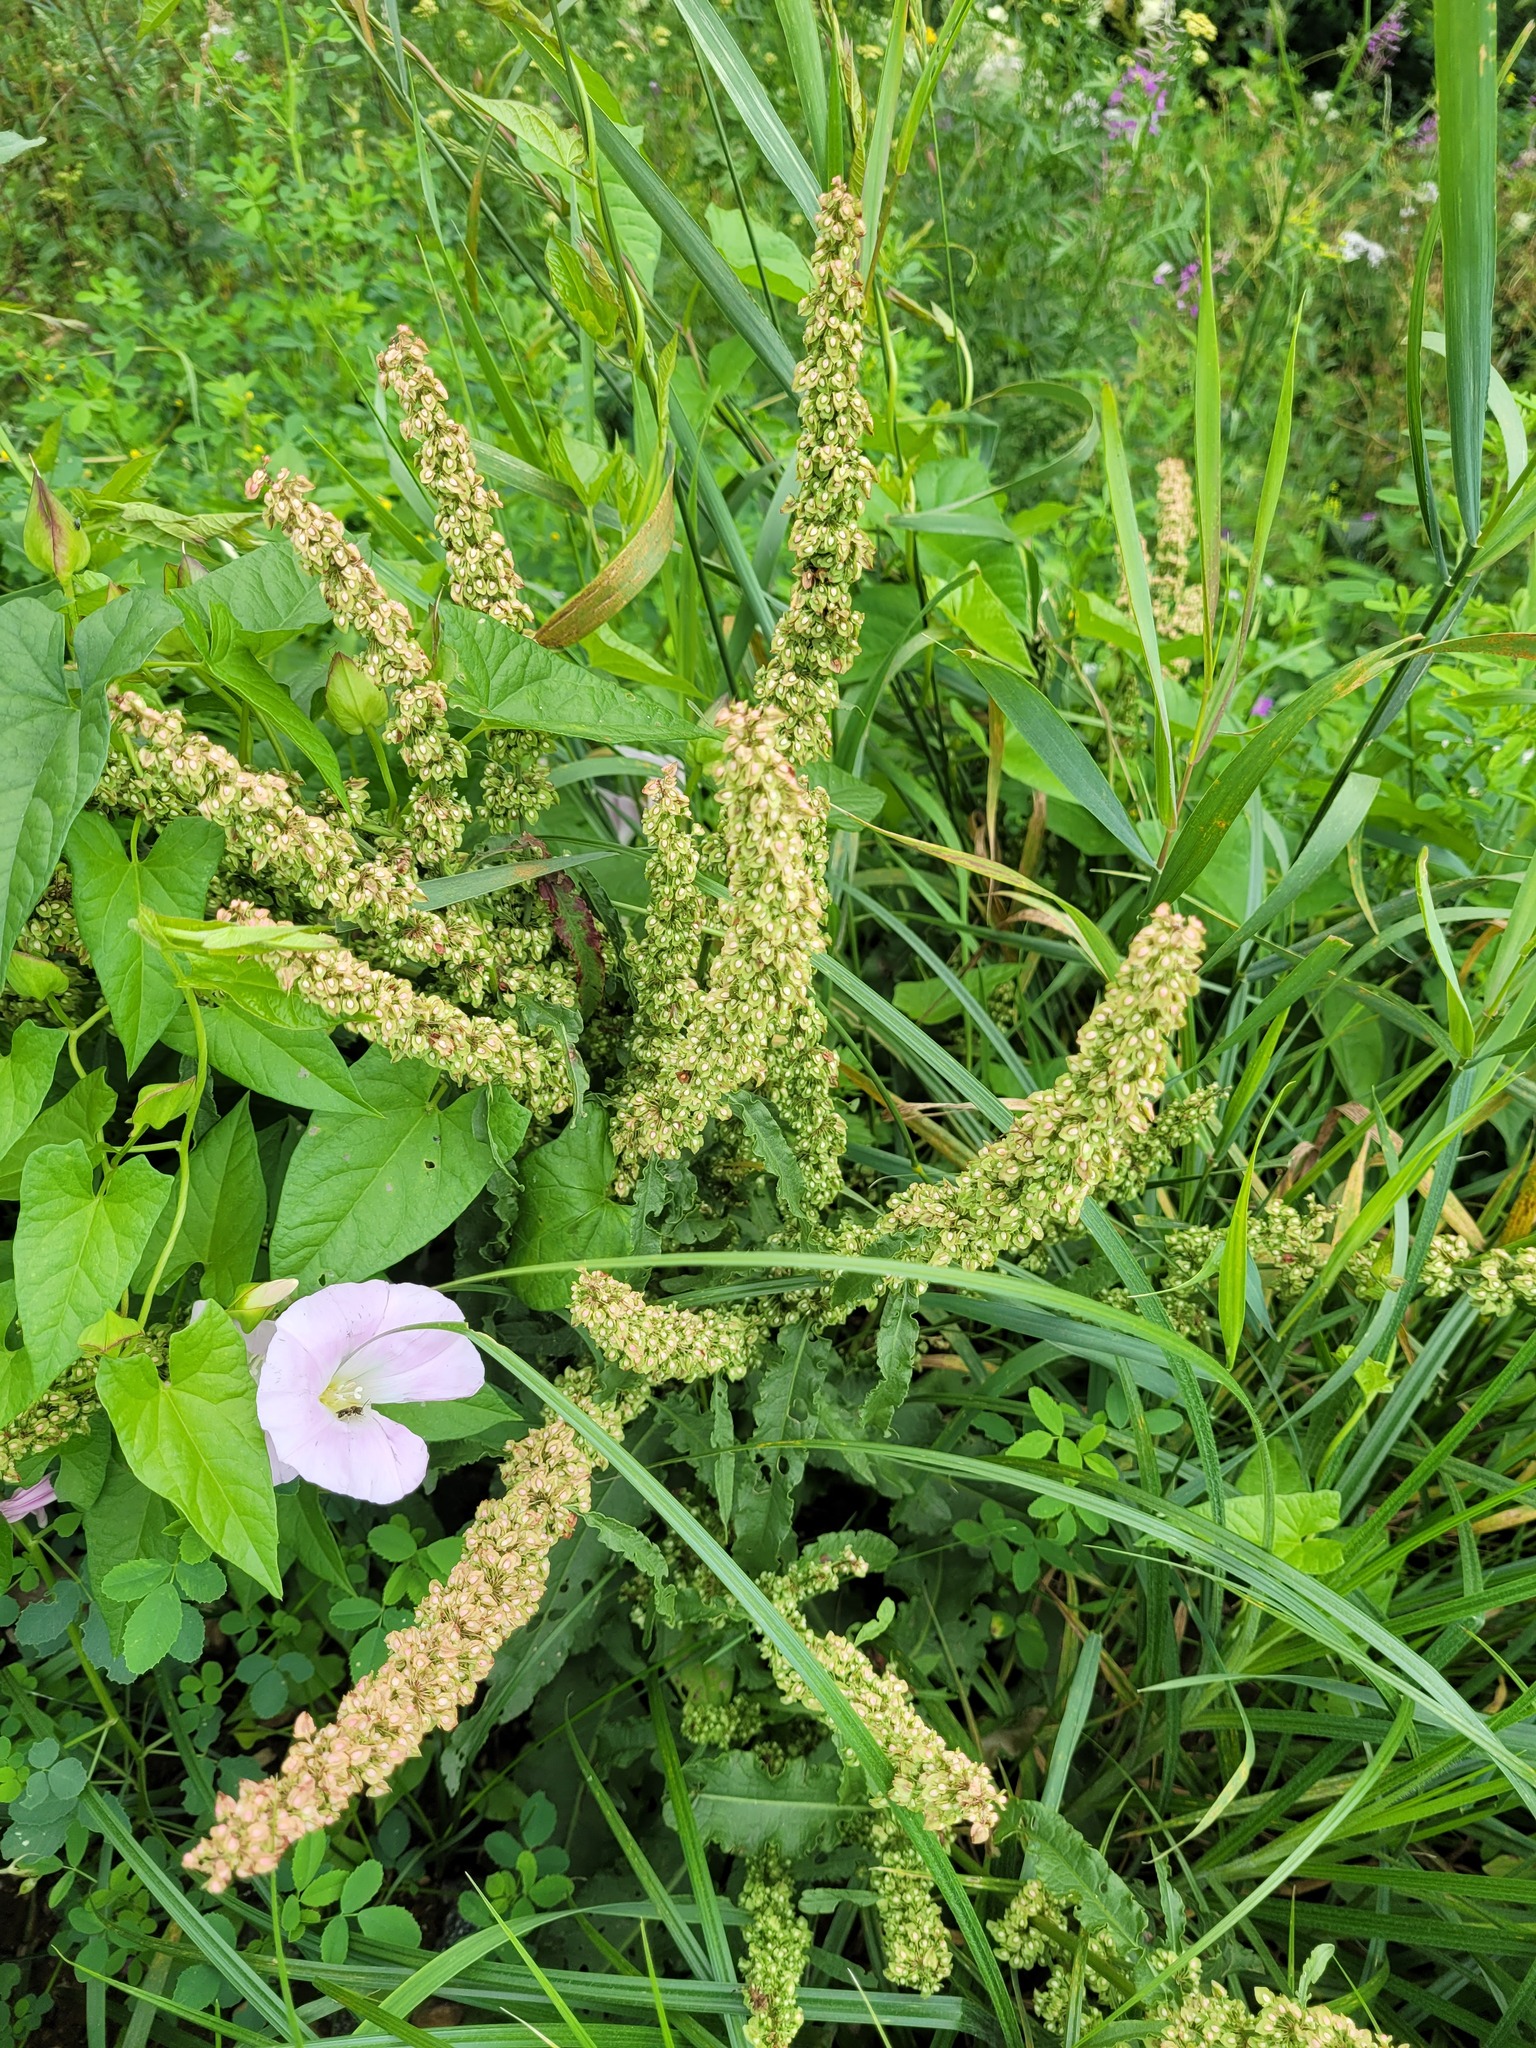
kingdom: Plantae
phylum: Tracheophyta
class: Magnoliopsida
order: Caryophyllales
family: Polygonaceae
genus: Rumex
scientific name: Rumex crispus
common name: Curled dock
